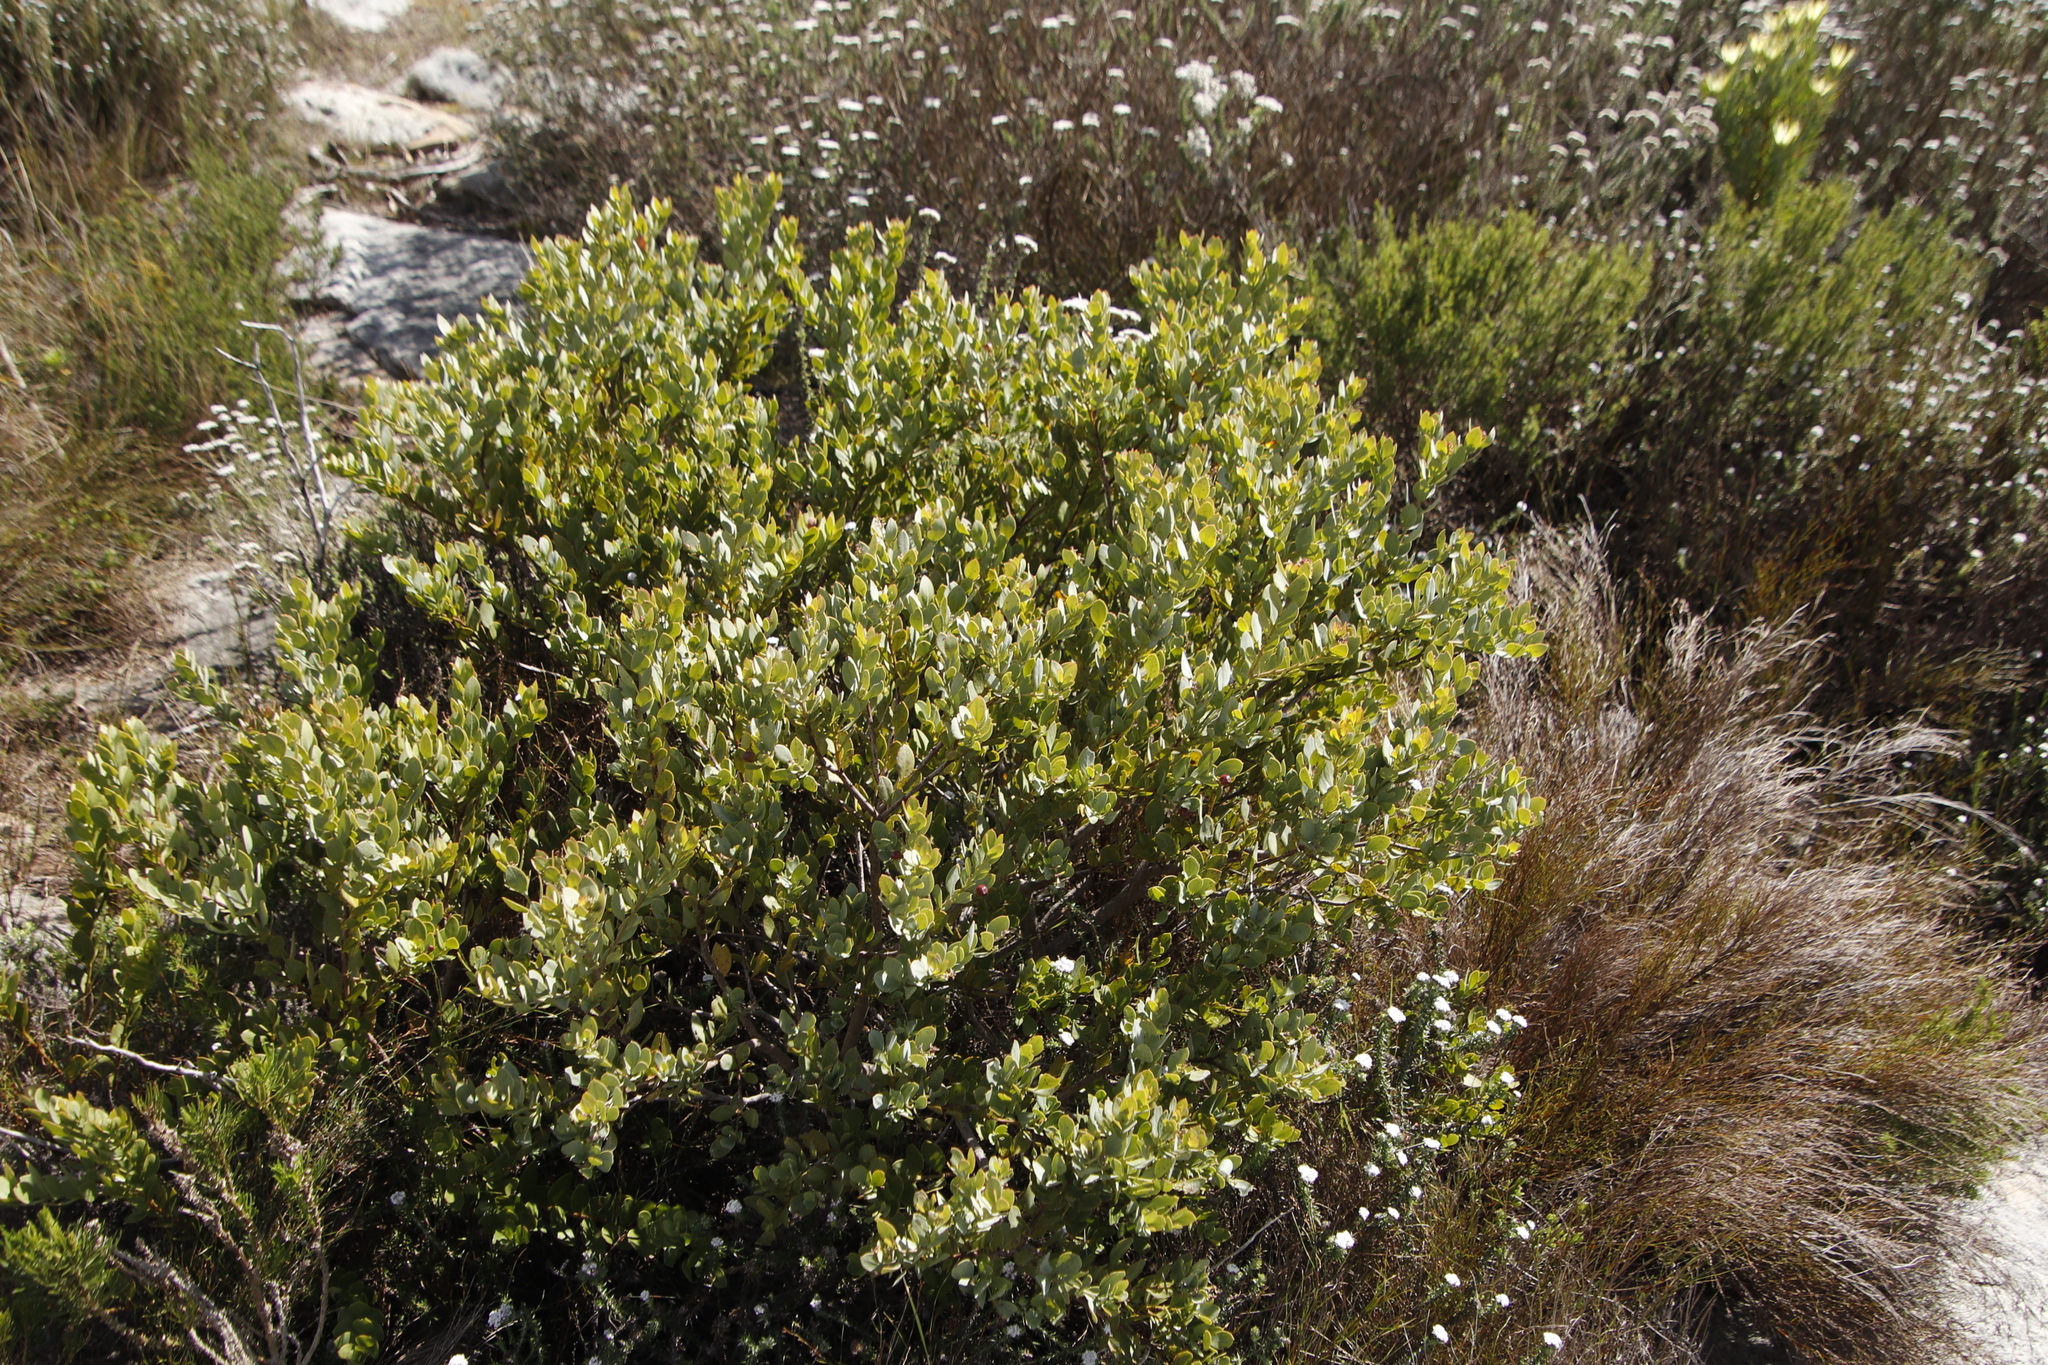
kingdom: Plantae
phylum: Tracheophyta
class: Magnoliopsida
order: Santalales
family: Santalaceae
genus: Osyris
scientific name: Osyris compressa
